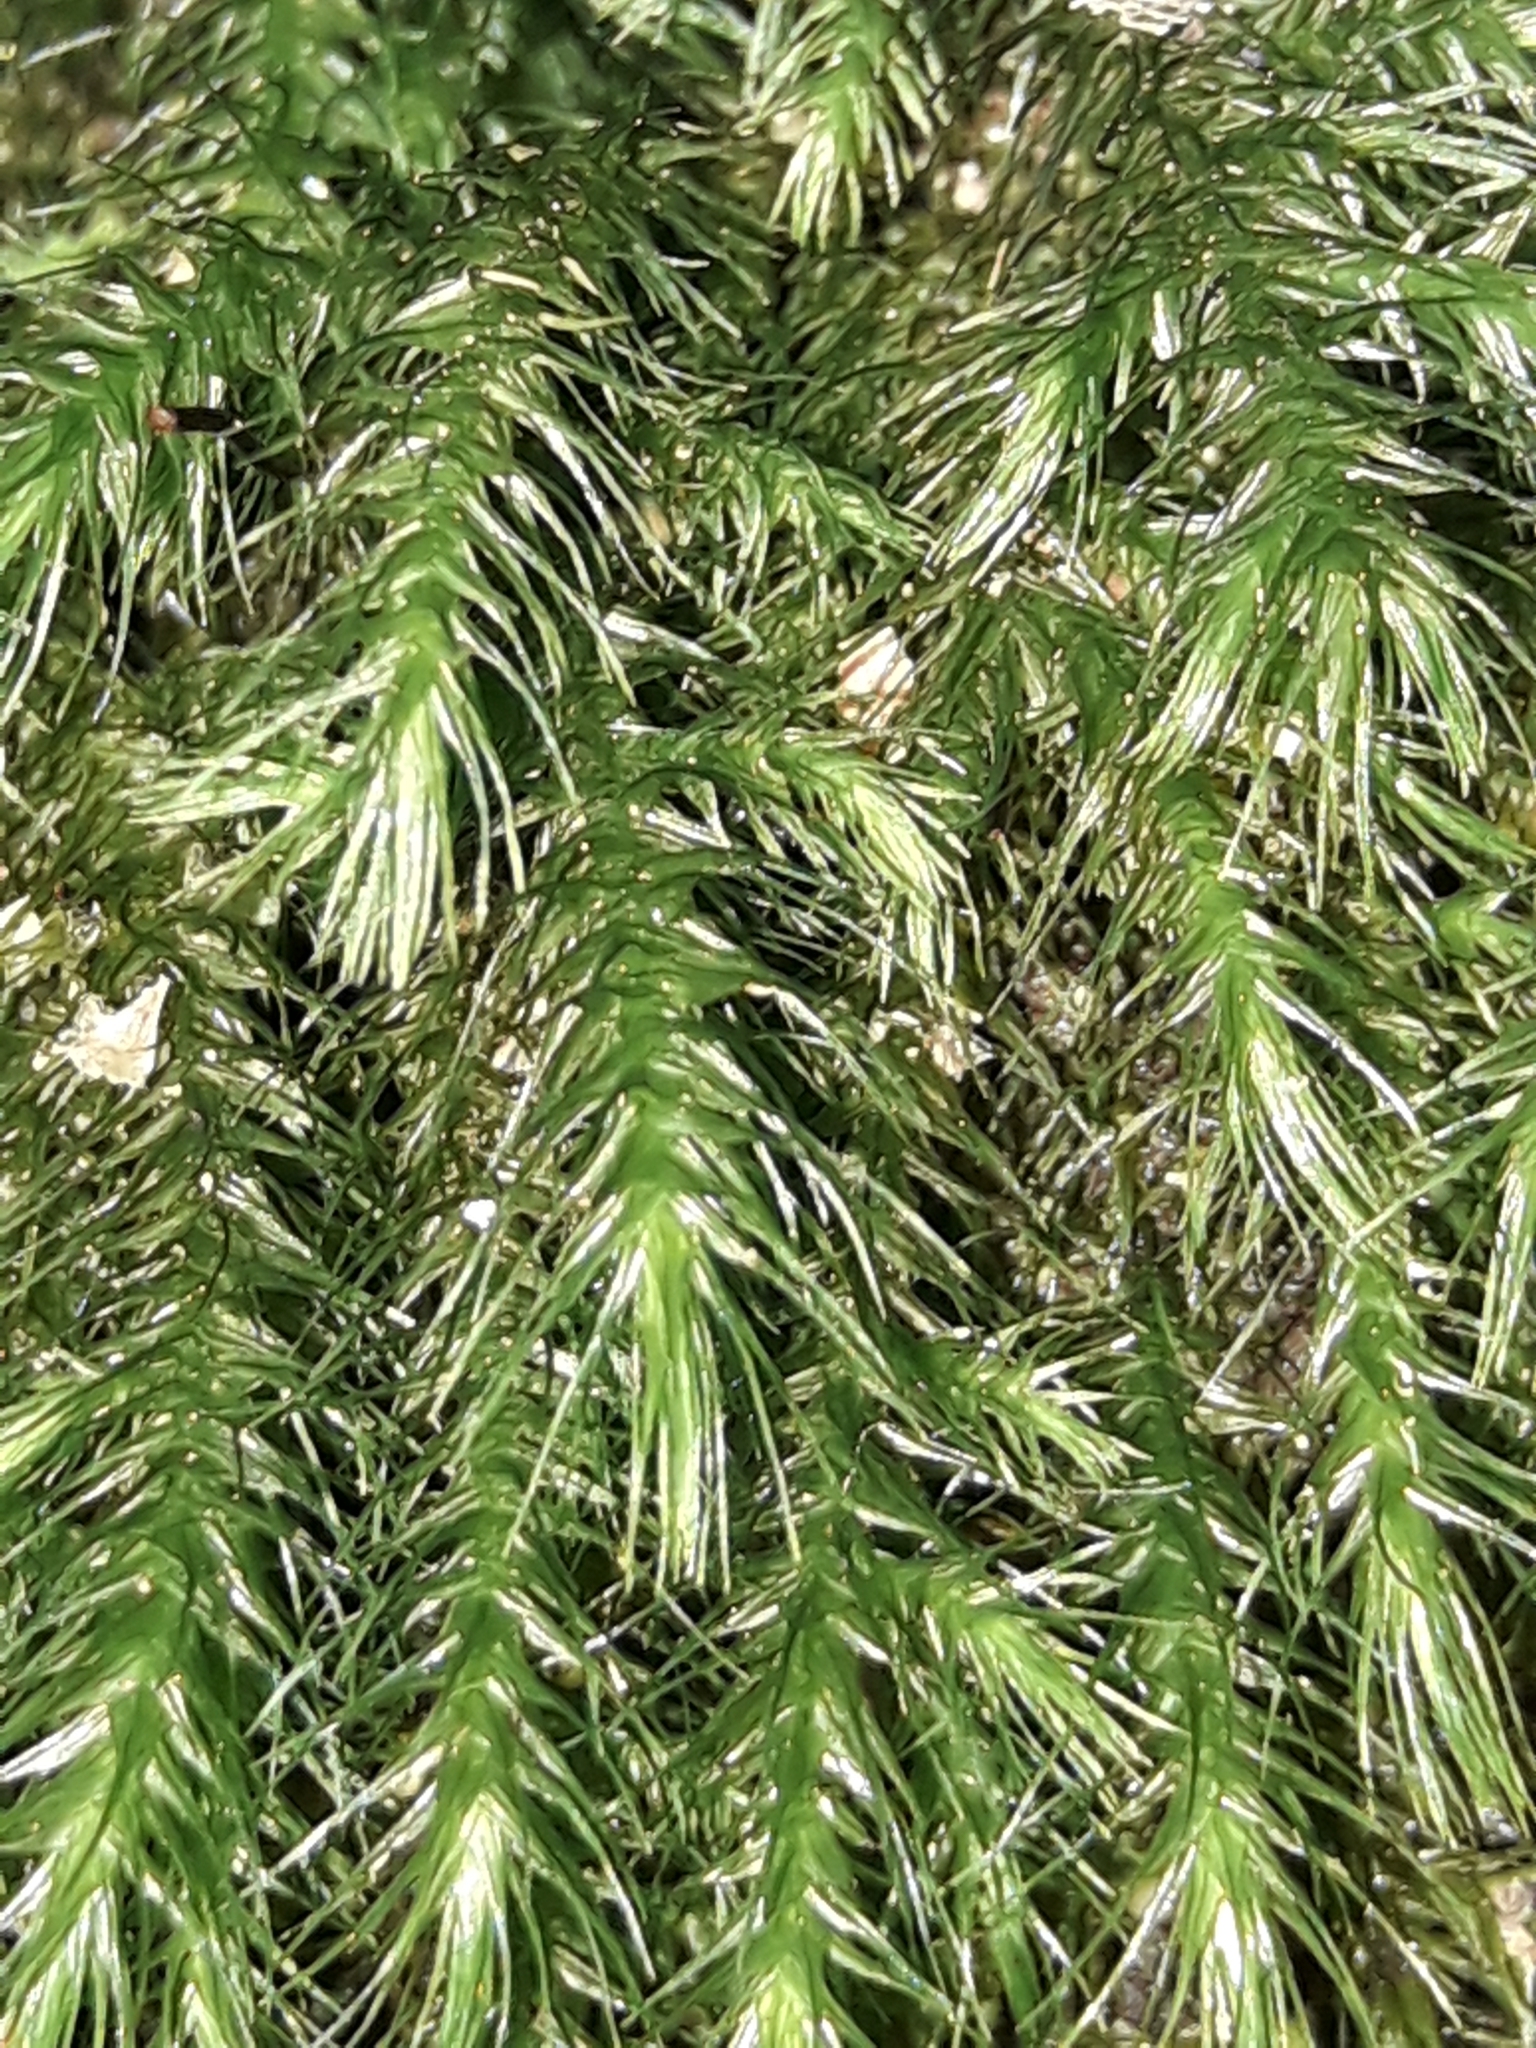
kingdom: Plantae
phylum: Bryophyta
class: Bryopsida
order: Hypnales
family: Neckeraceae
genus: Echinodiopsis
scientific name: Echinodiopsis hispida
